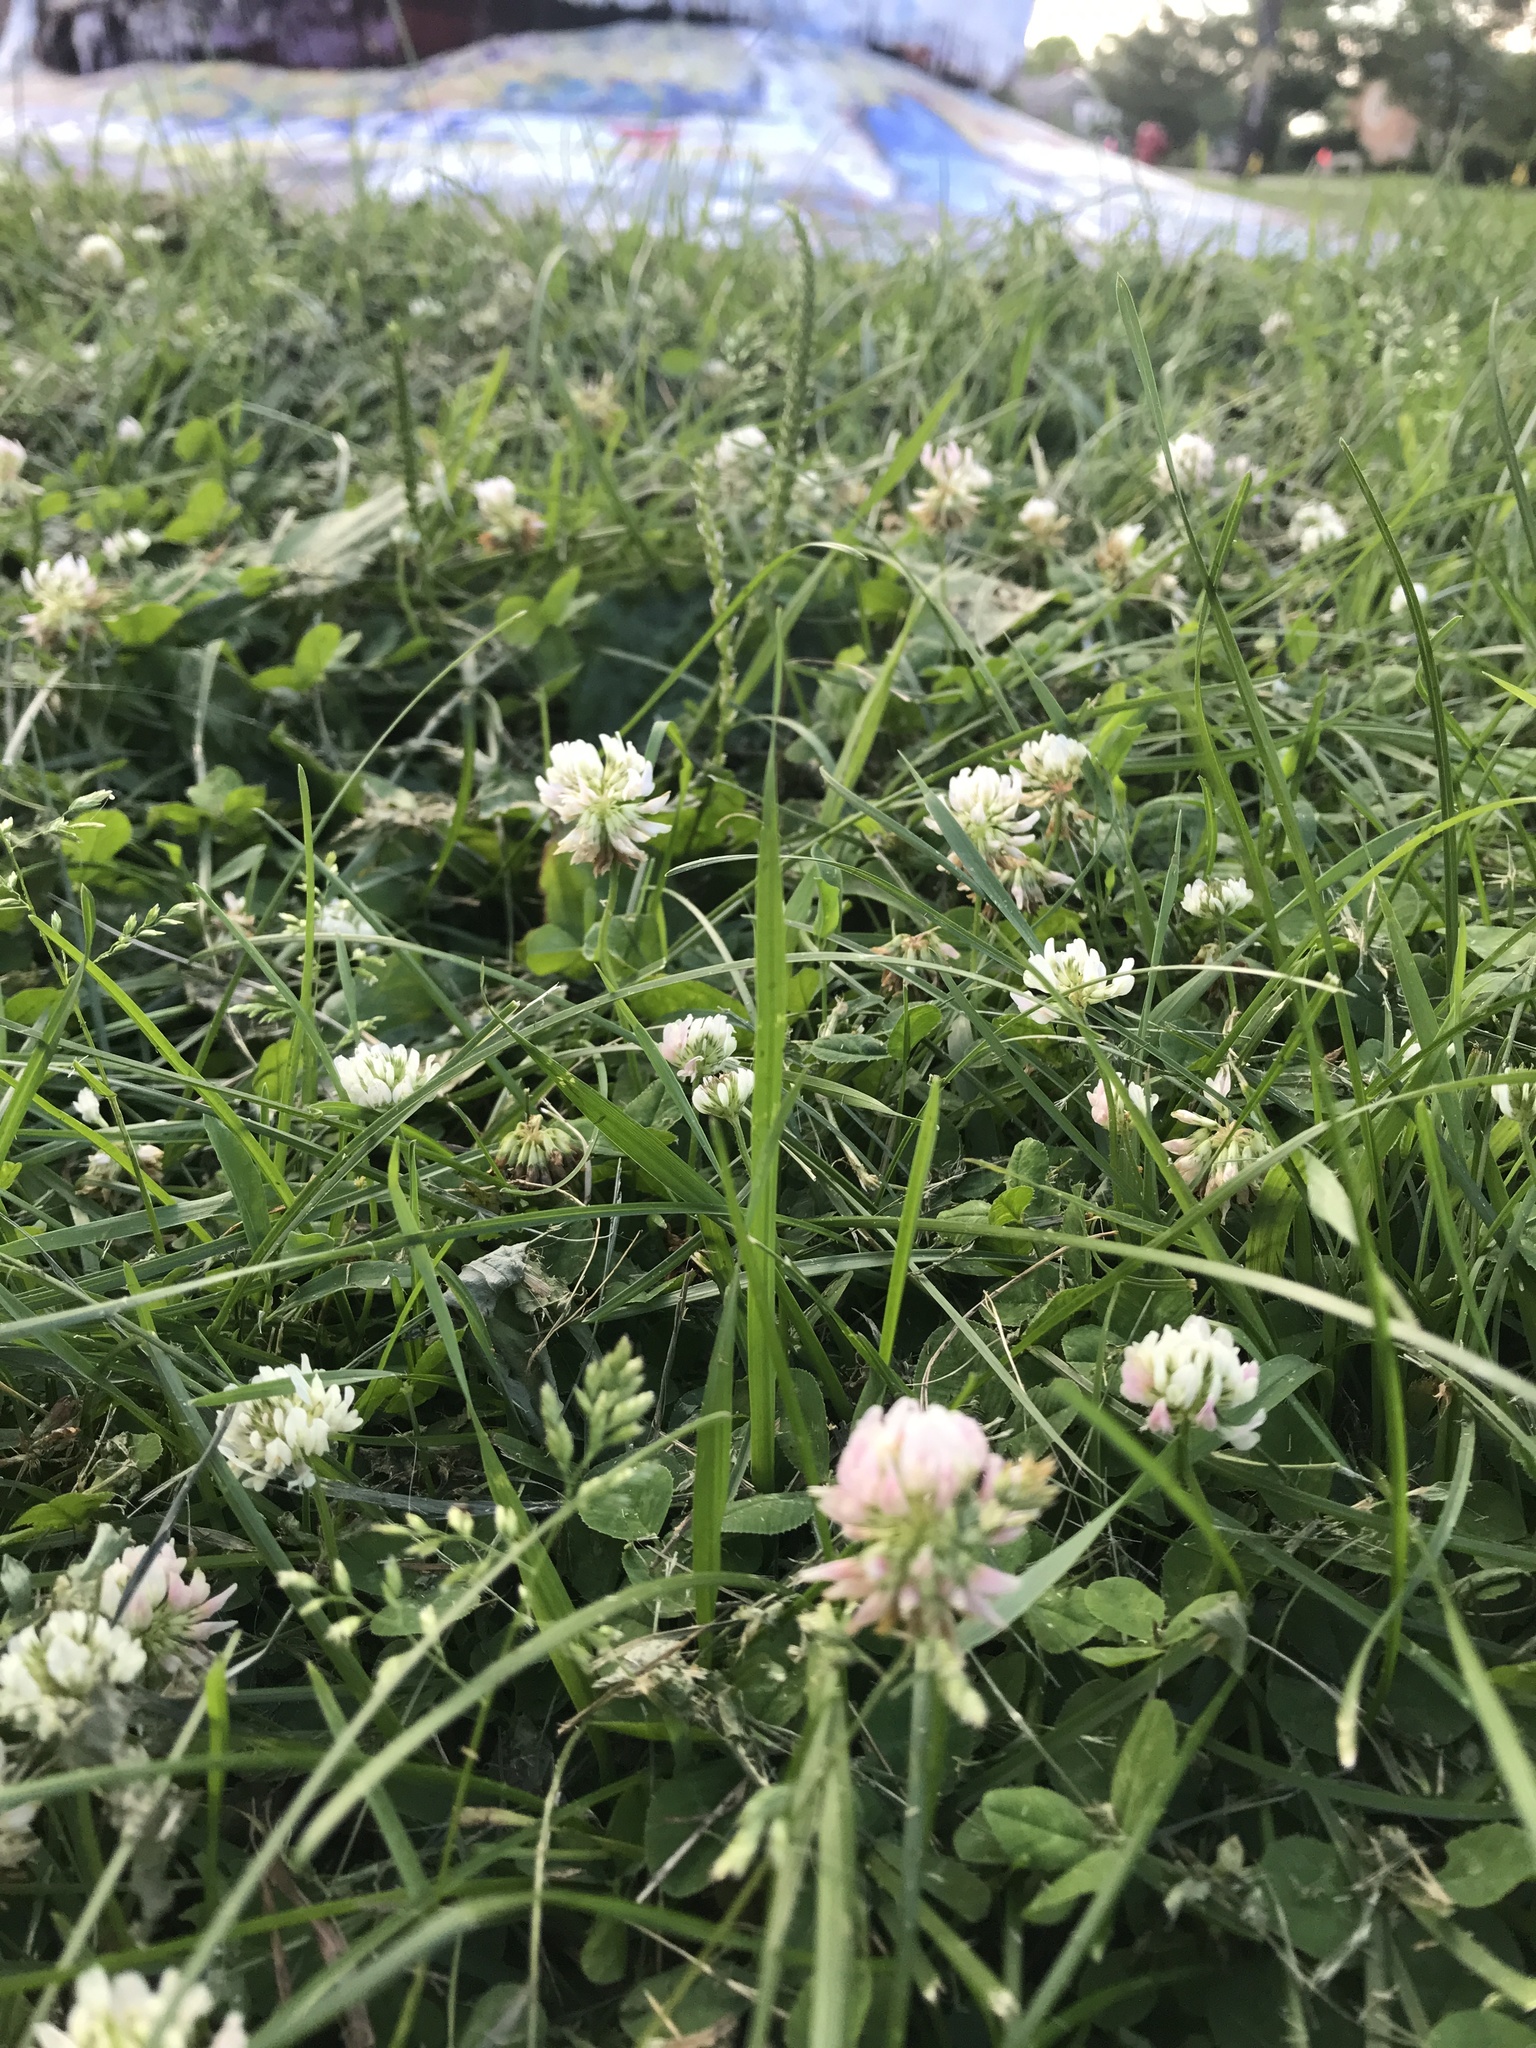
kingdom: Plantae
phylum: Tracheophyta
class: Magnoliopsida
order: Fabales
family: Fabaceae
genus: Trifolium
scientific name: Trifolium repens
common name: White clover
